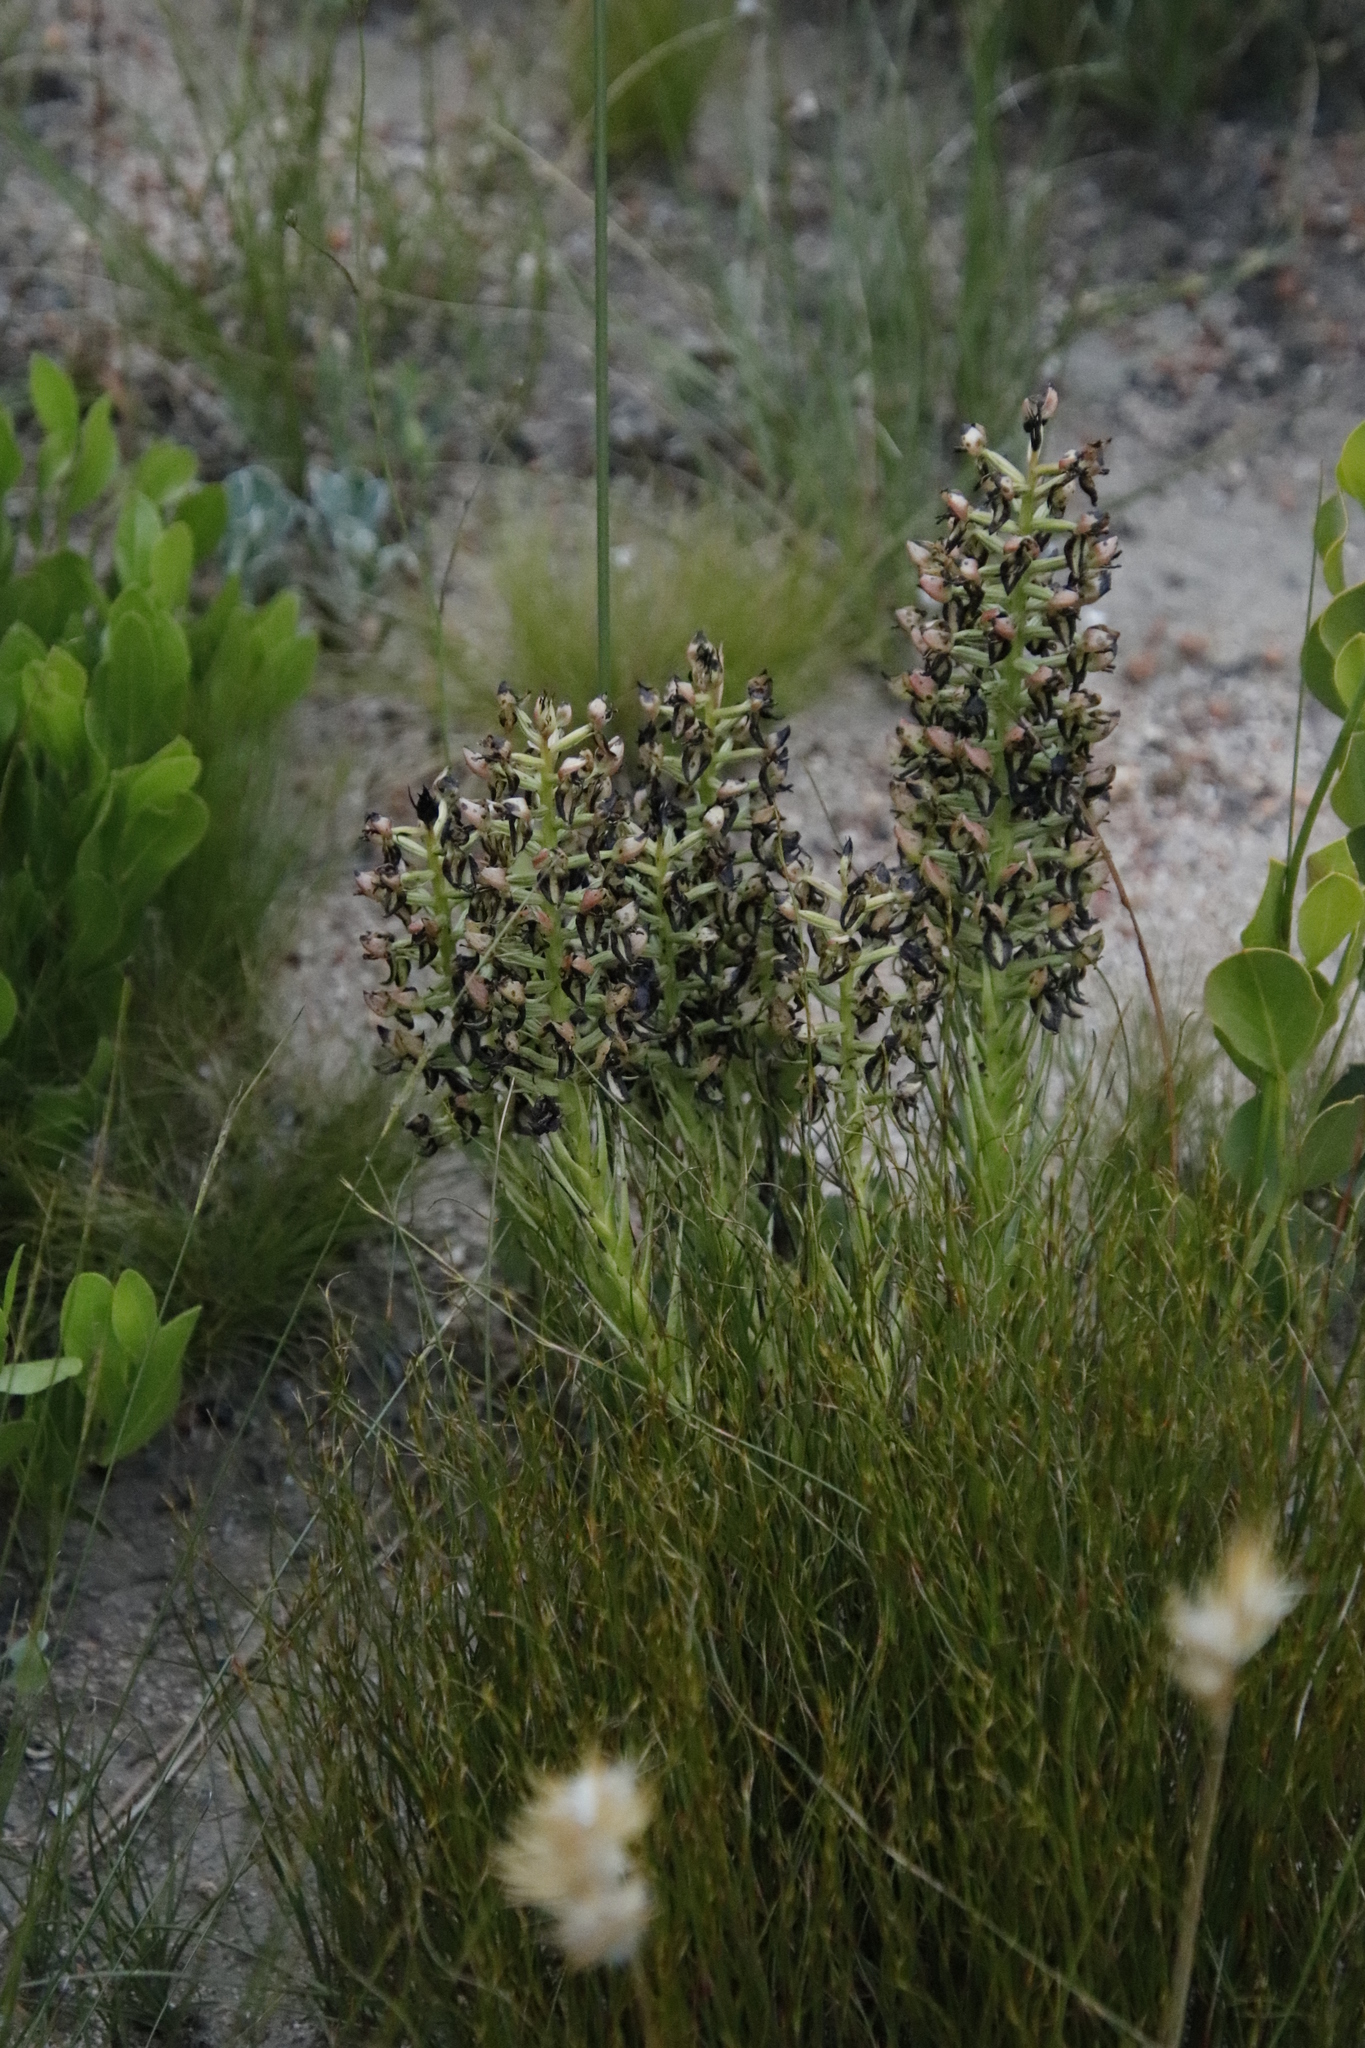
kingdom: Plantae
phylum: Tracheophyta
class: Liliopsida
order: Asparagales
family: Orchidaceae
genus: Ceratandra
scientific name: Ceratandra atrata
